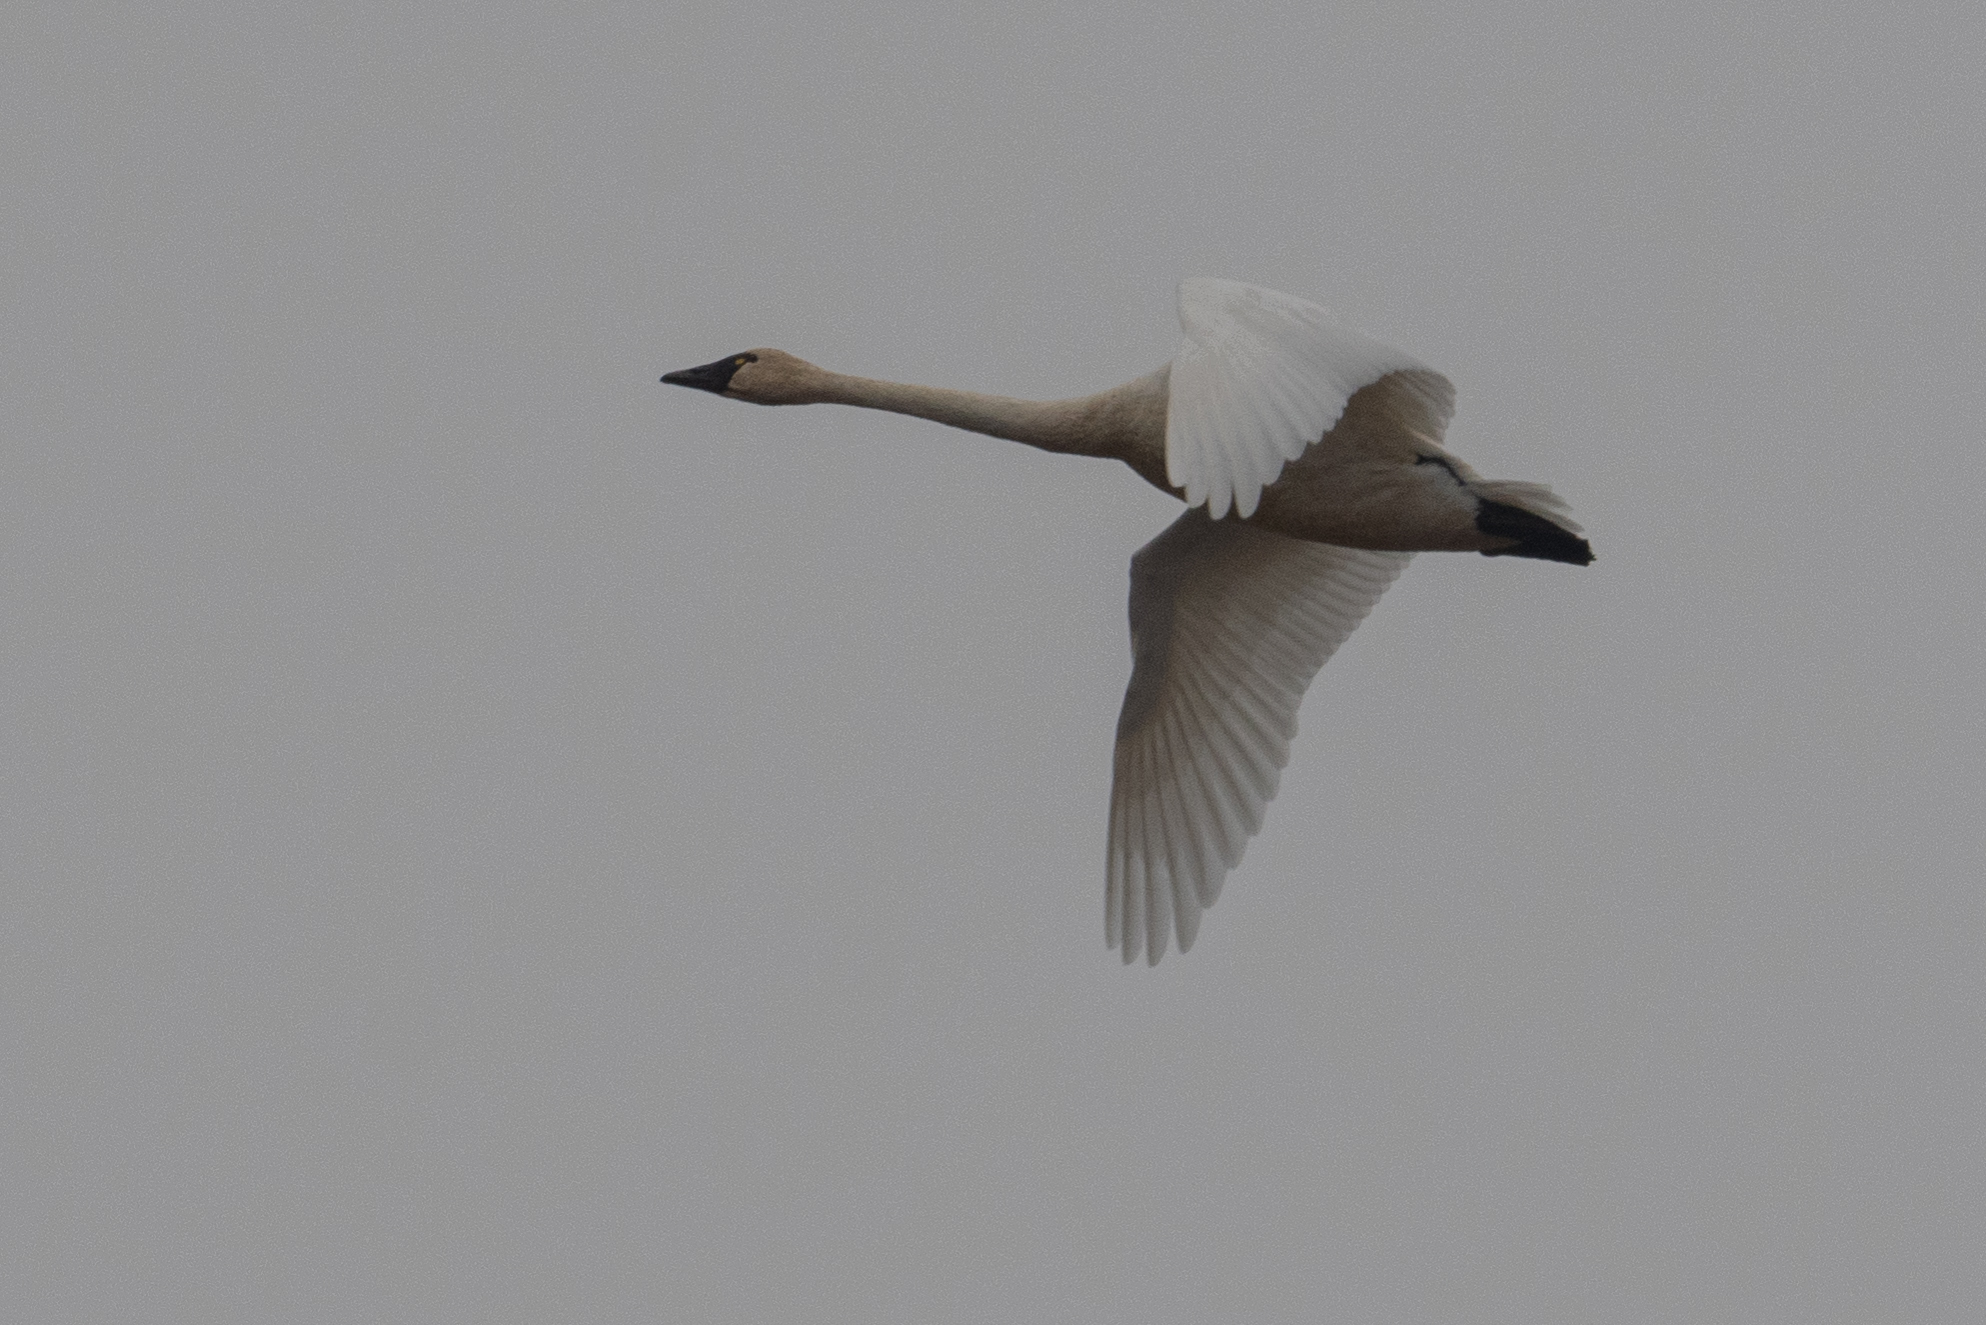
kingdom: Animalia
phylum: Chordata
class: Aves
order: Anseriformes
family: Anatidae
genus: Cygnus
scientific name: Cygnus columbianus
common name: Tundra swan
